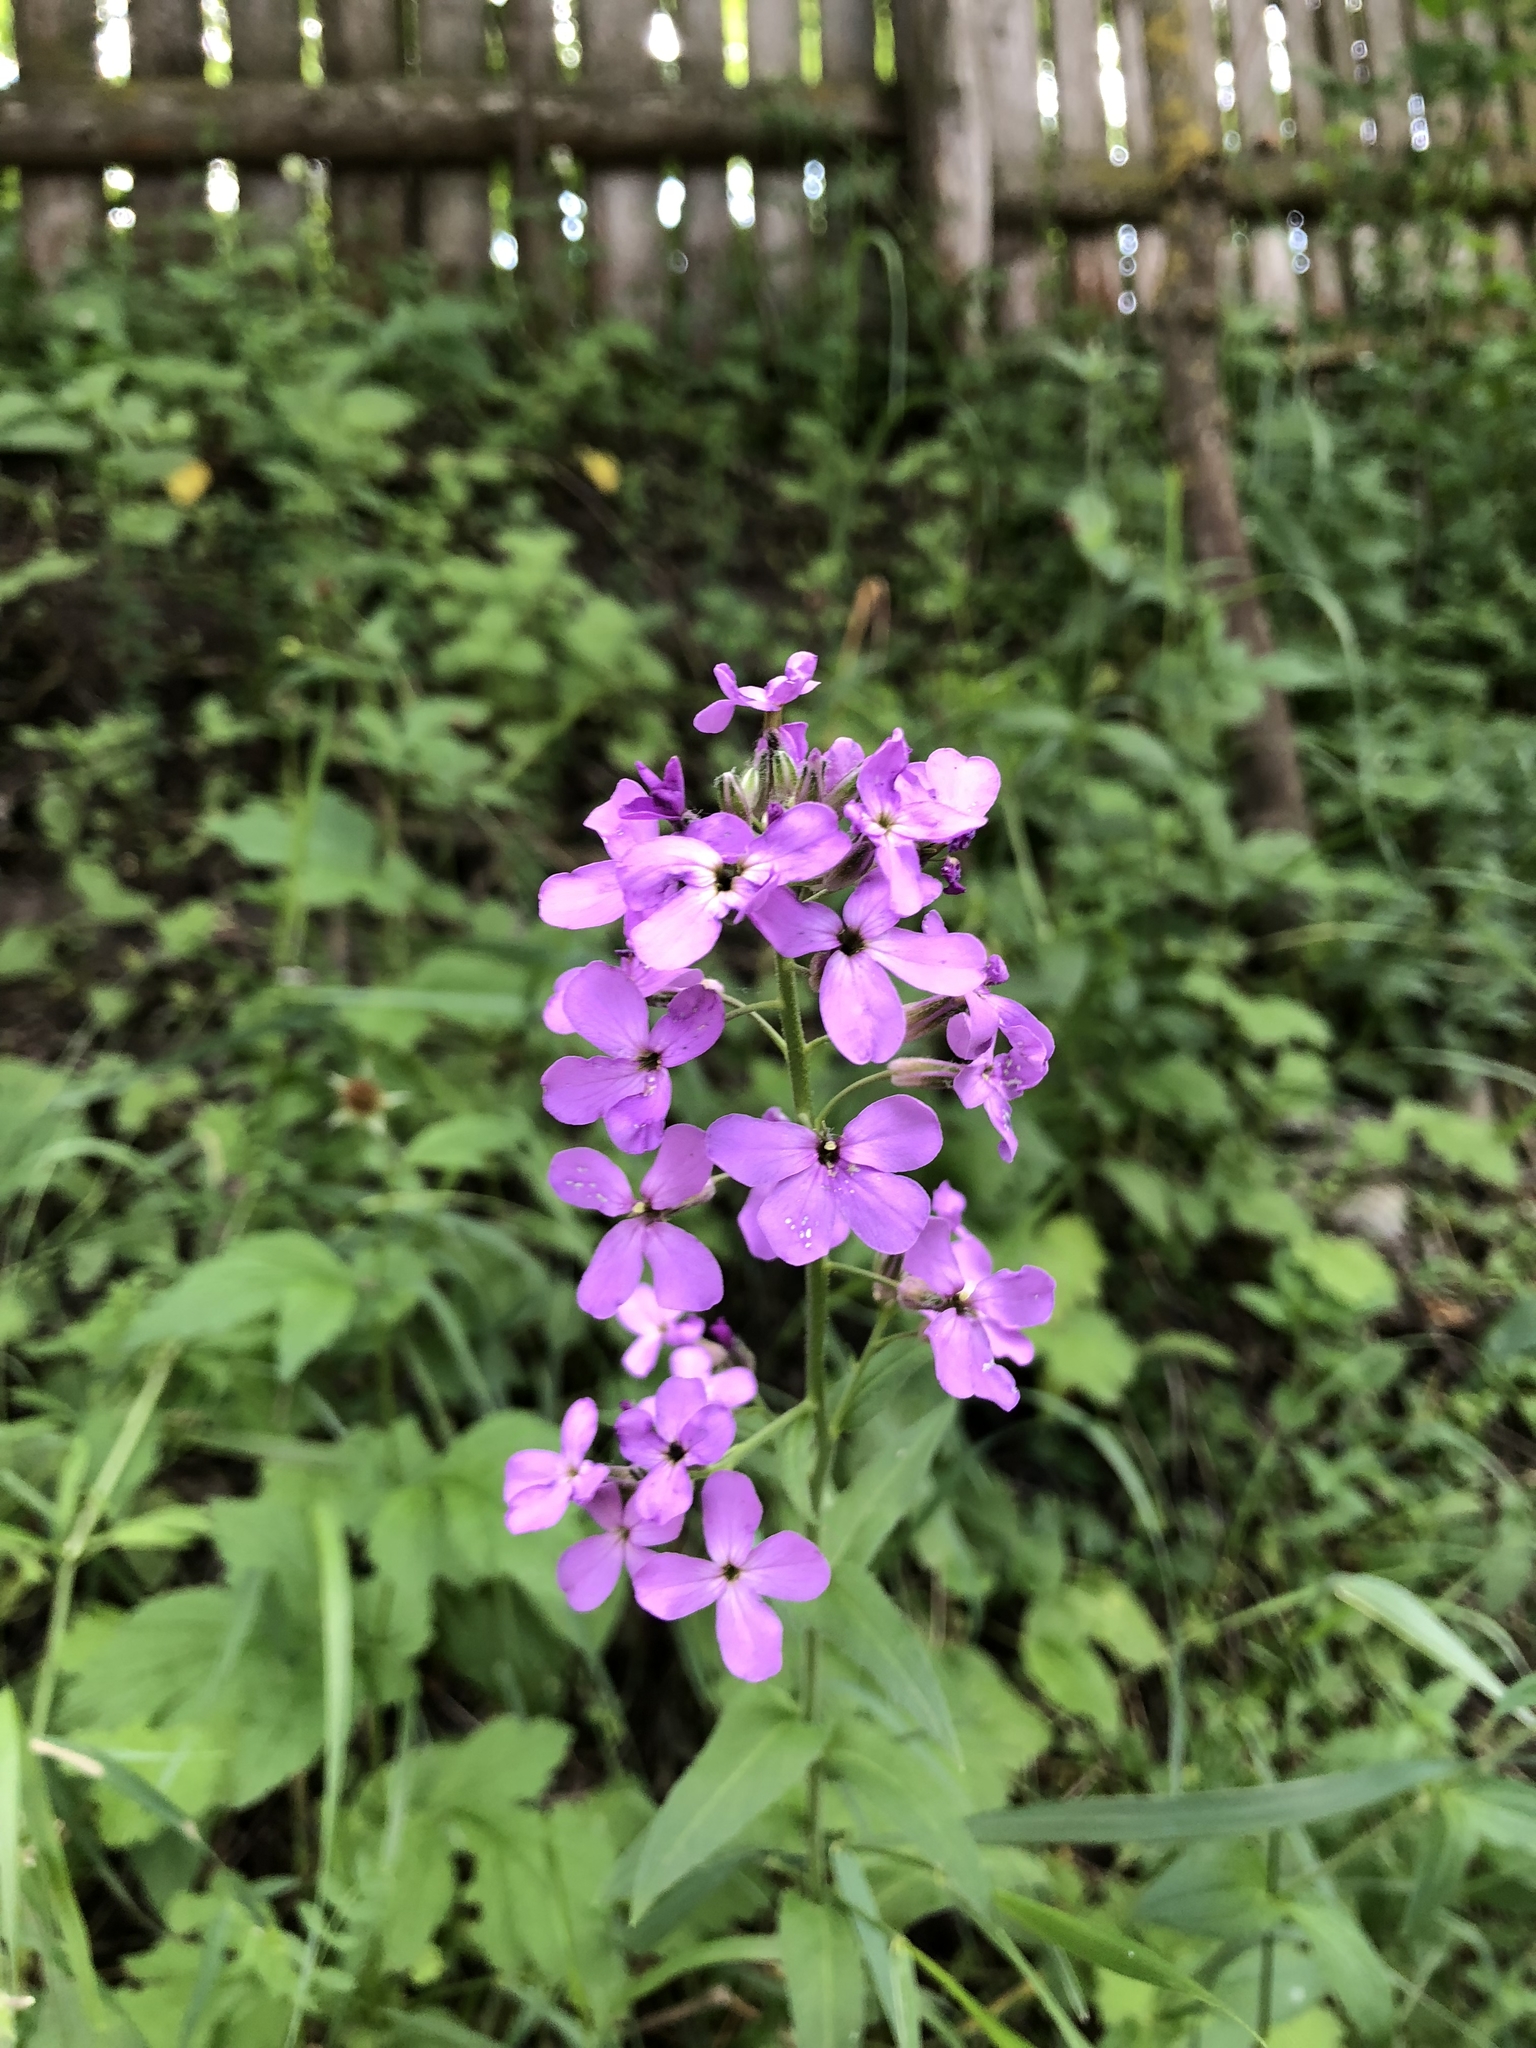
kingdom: Plantae
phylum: Tracheophyta
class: Magnoliopsida
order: Brassicales
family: Brassicaceae
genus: Hesperis
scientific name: Hesperis matronalis
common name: Dame's-violet
